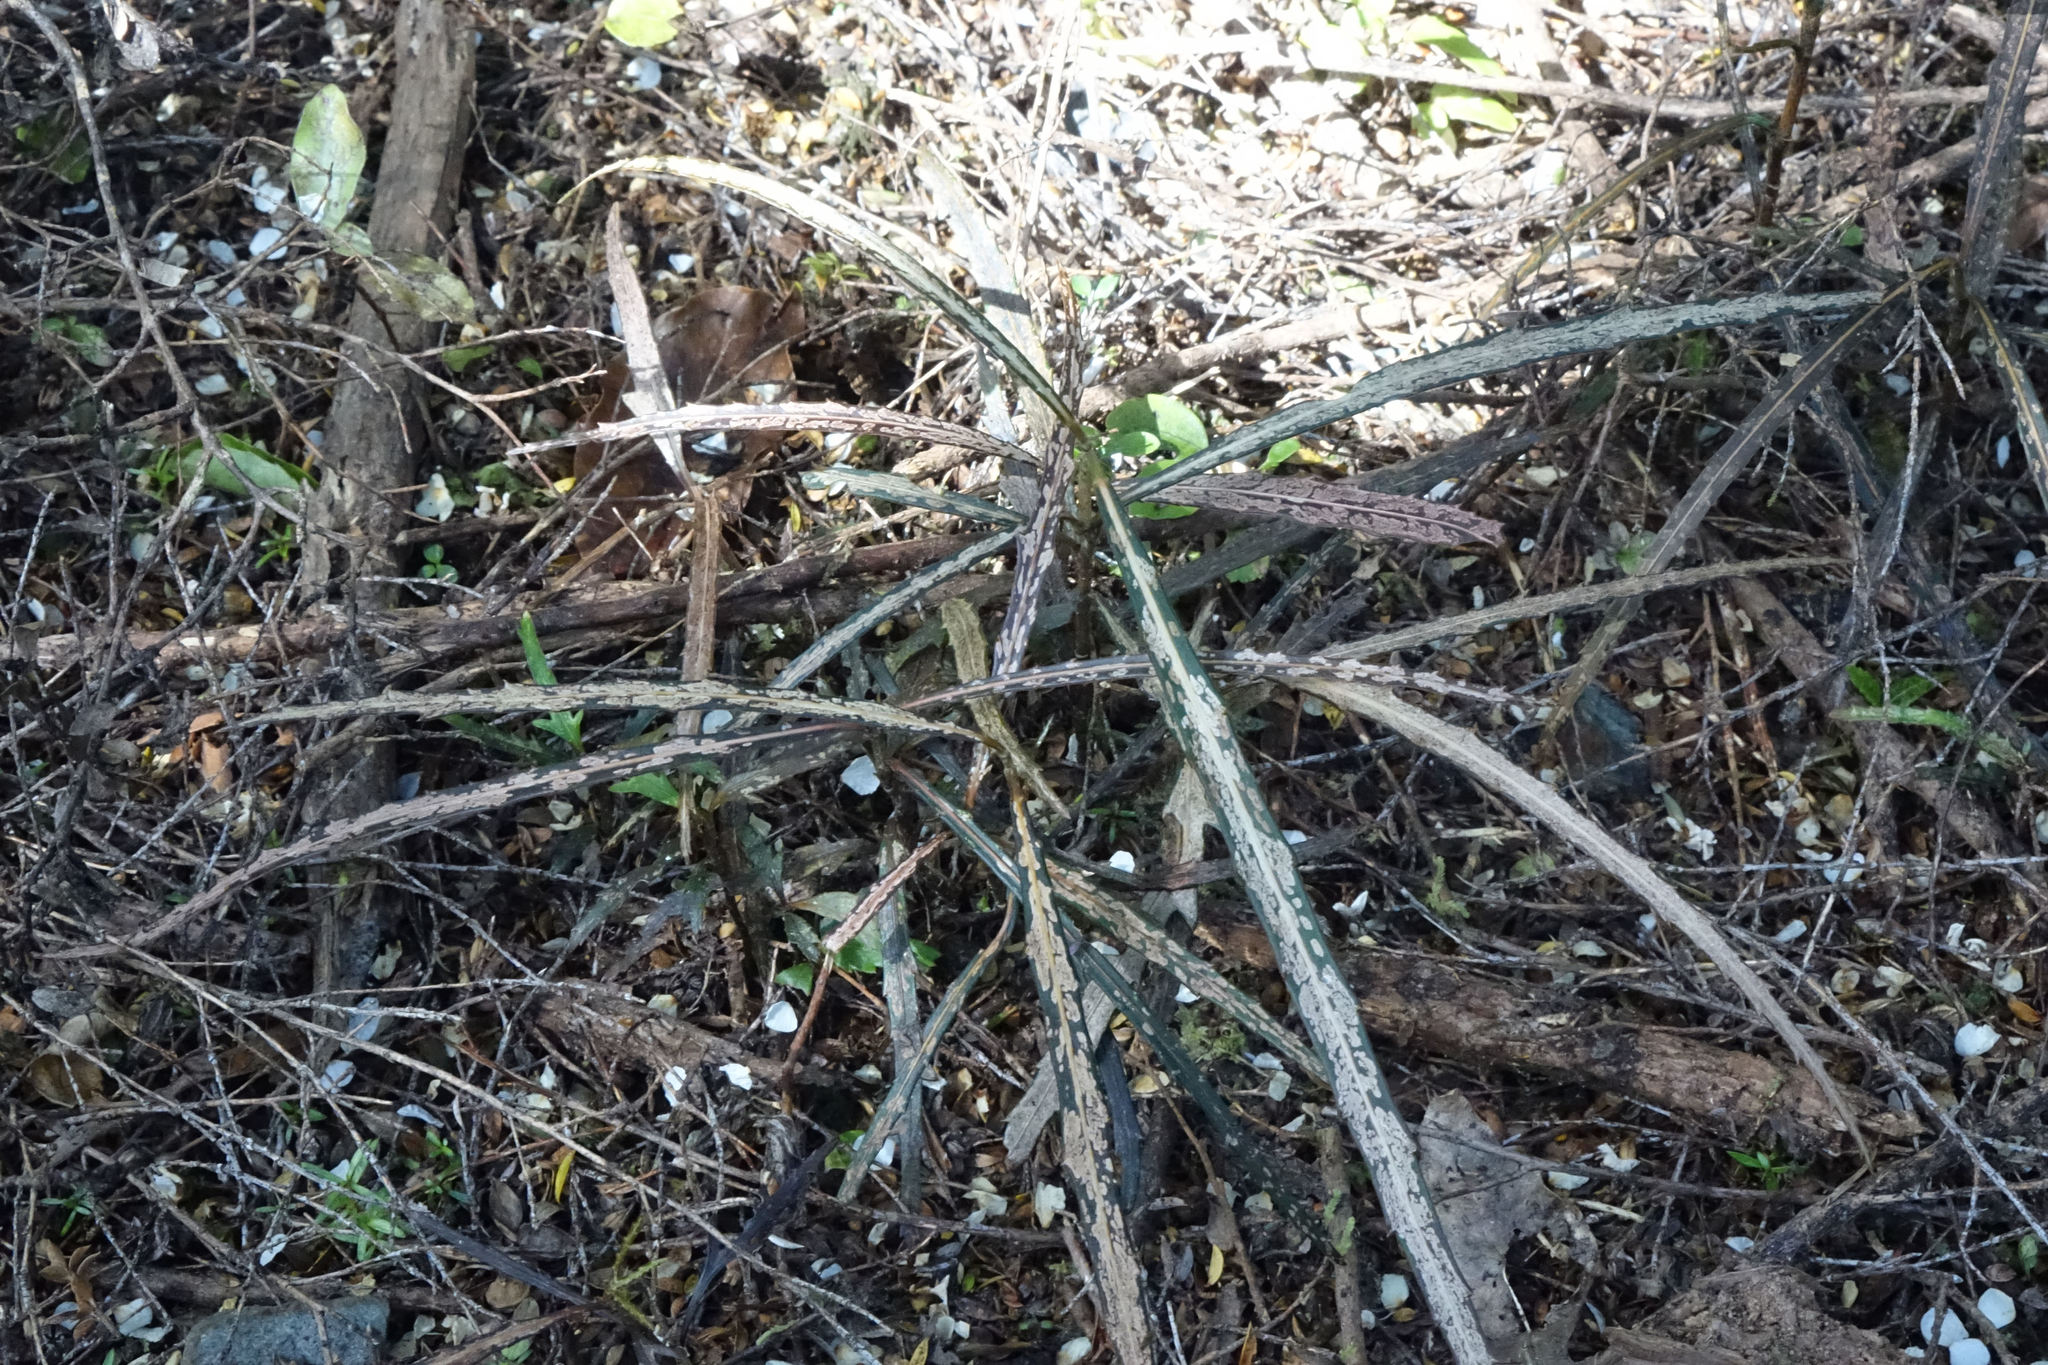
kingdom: Plantae
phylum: Tracheophyta
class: Magnoliopsida
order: Apiales
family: Araliaceae
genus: Pseudopanax
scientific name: Pseudopanax crassifolius
